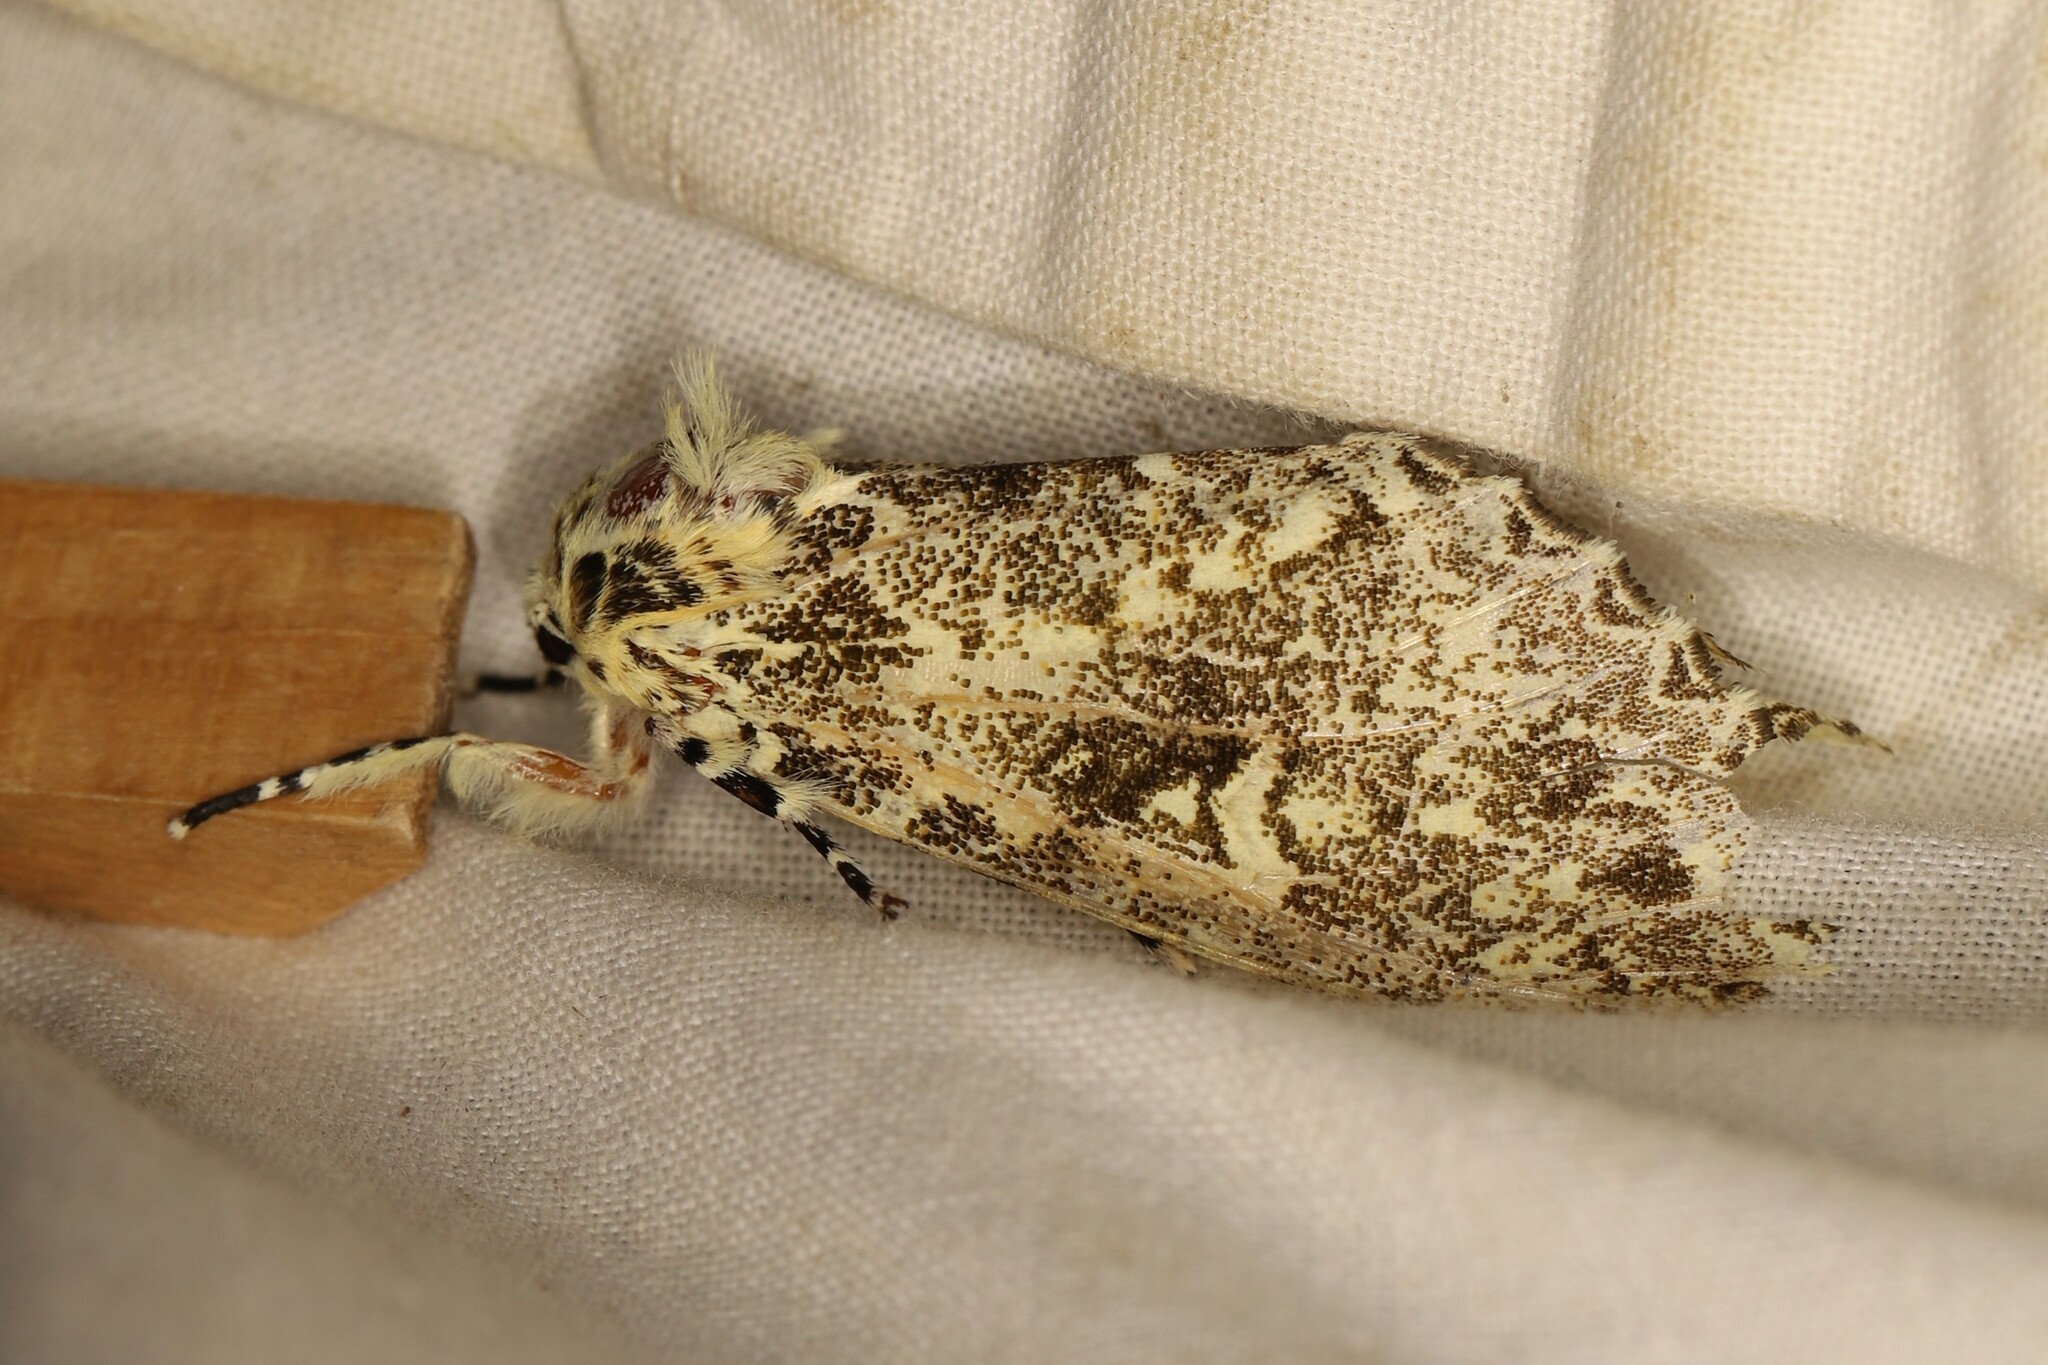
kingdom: Animalia
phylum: Arthropoda
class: Insecta
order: Lepidoptera
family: Noctuidae
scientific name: Noctuidae
